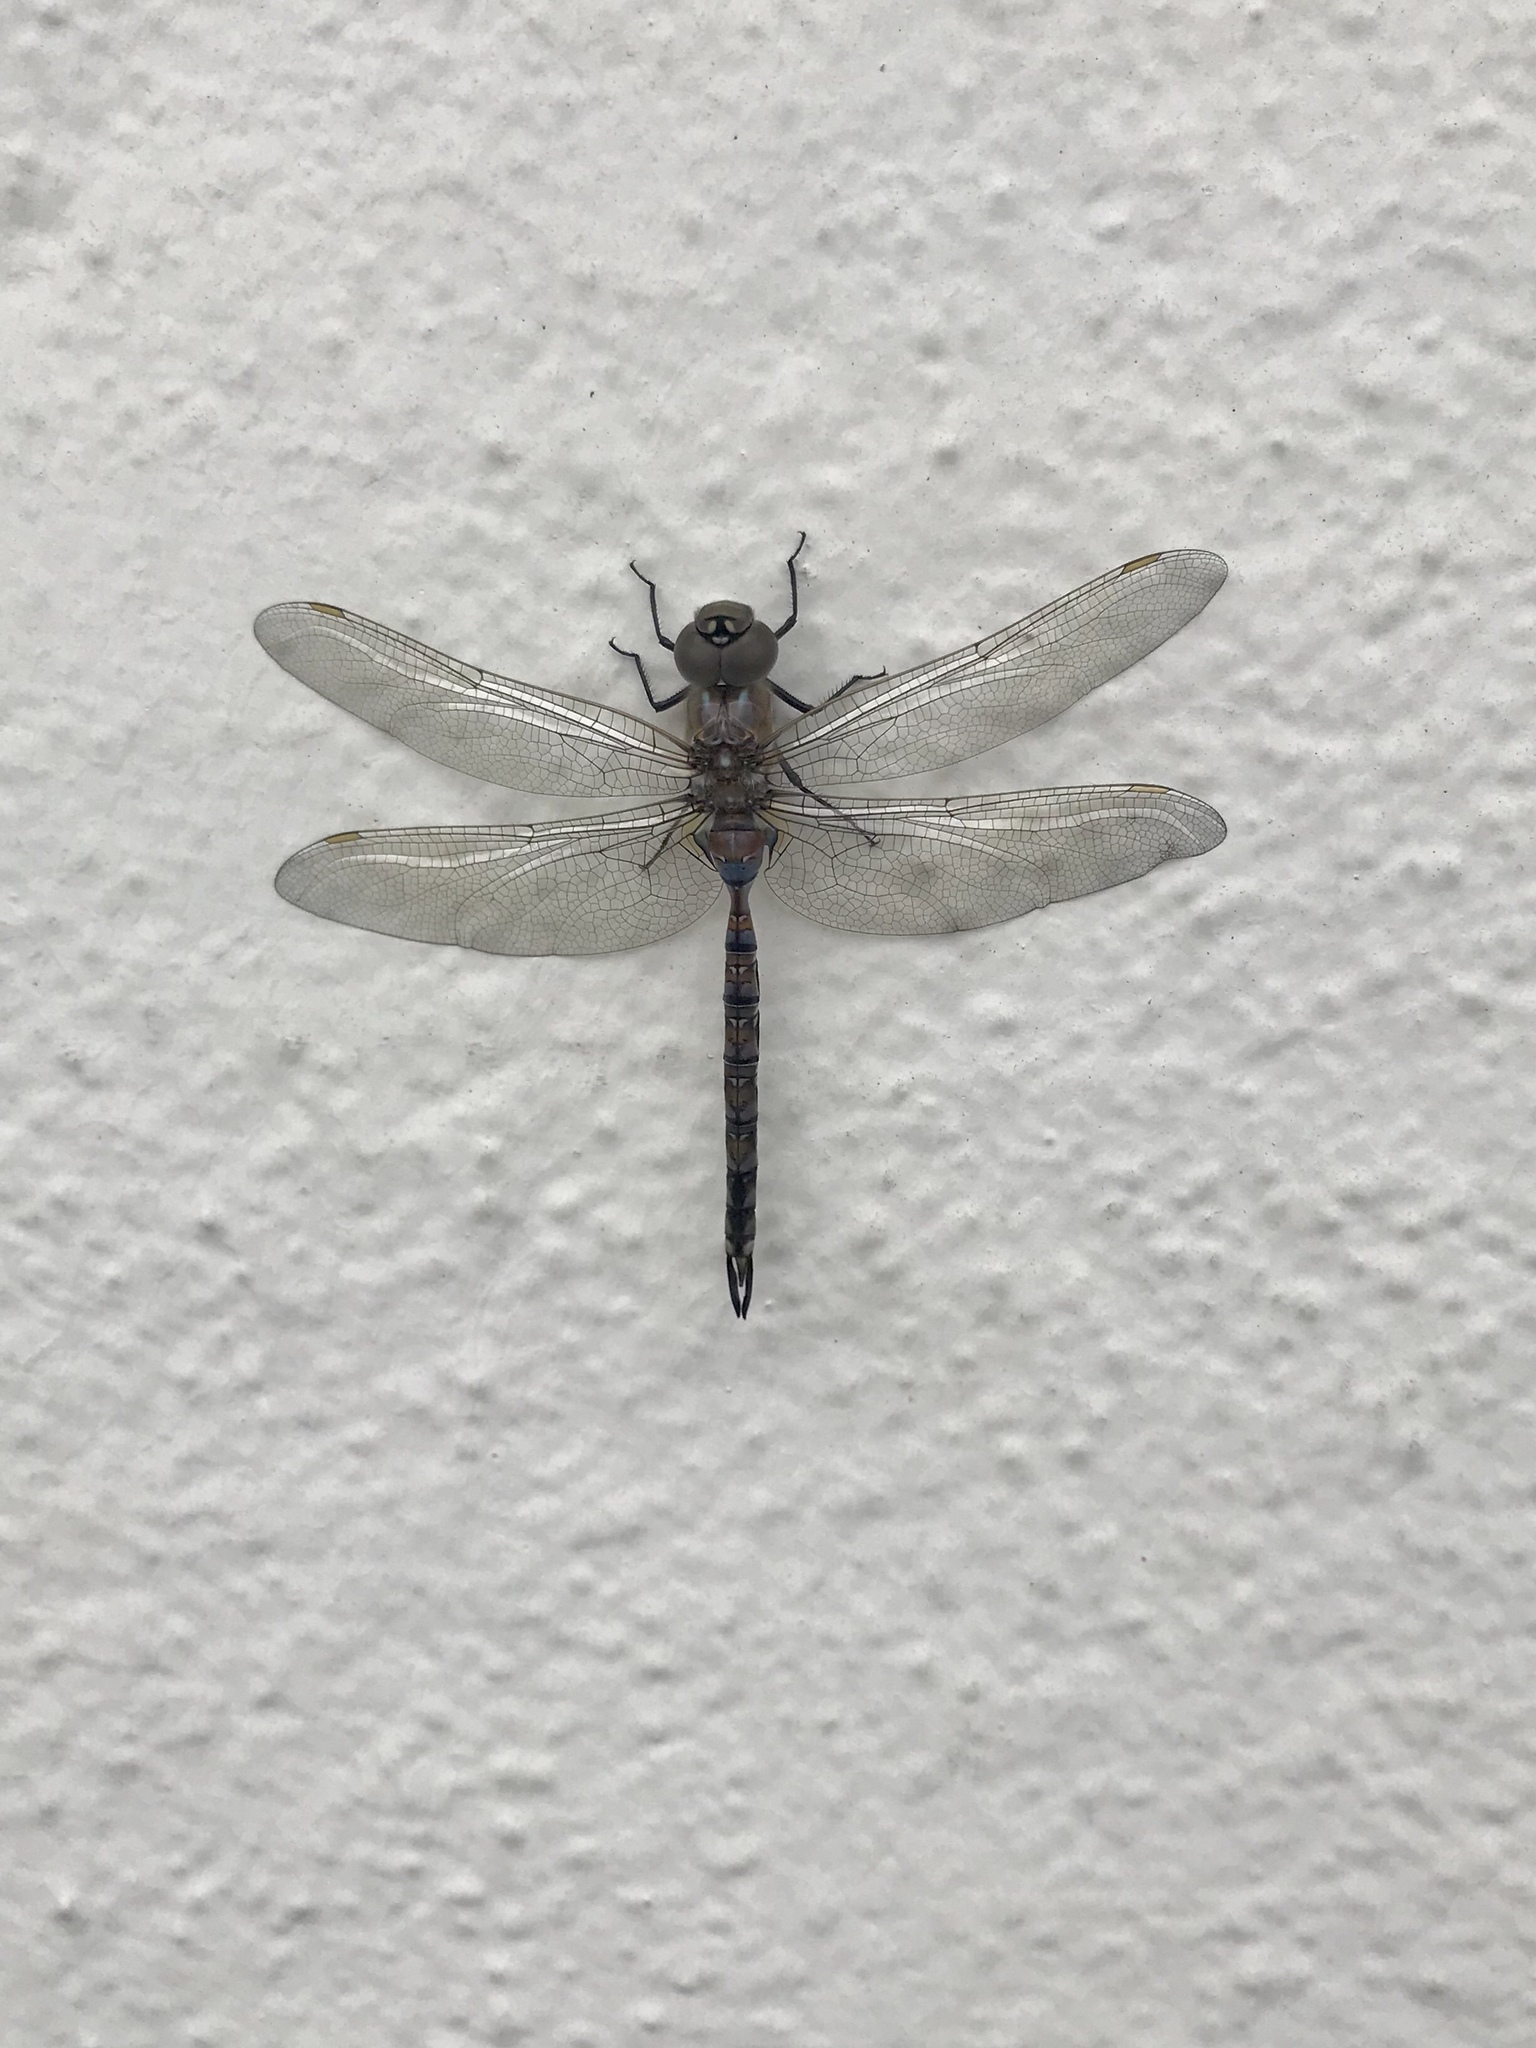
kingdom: Animalia
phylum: Arthropoda
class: Insecta
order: Odonata
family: Aeshnidae
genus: Rhionaeschna
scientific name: Rhionaeschna multicolor
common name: Blue-eyed darner
